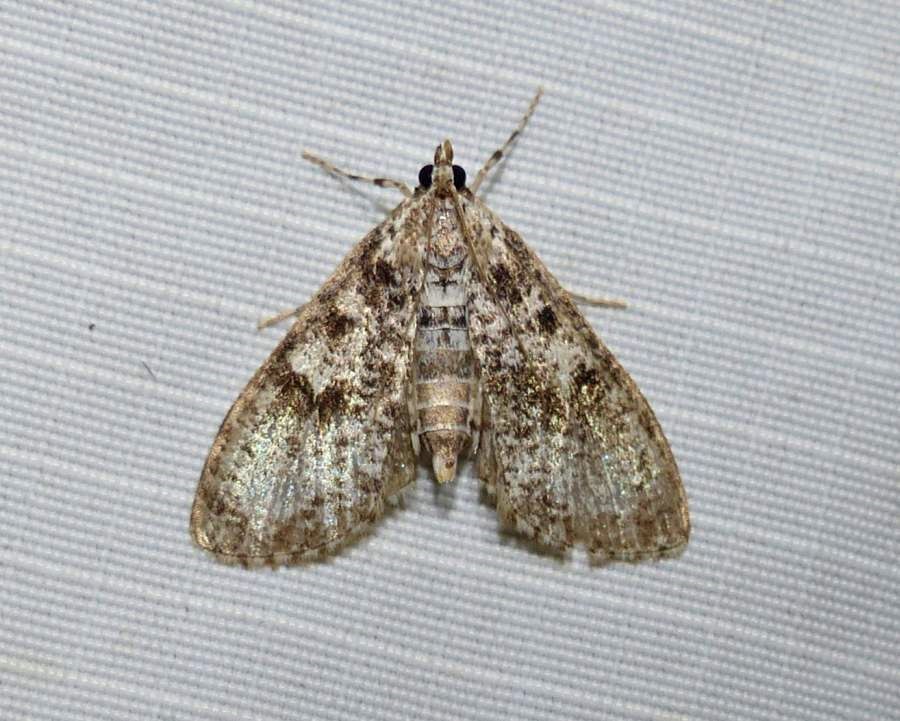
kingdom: Animalia
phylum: Arthropoda
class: Insecta
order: Lepidoptera
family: Crambidae
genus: Palpita
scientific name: Palpita magniferalis
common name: Splendid palpita moth
